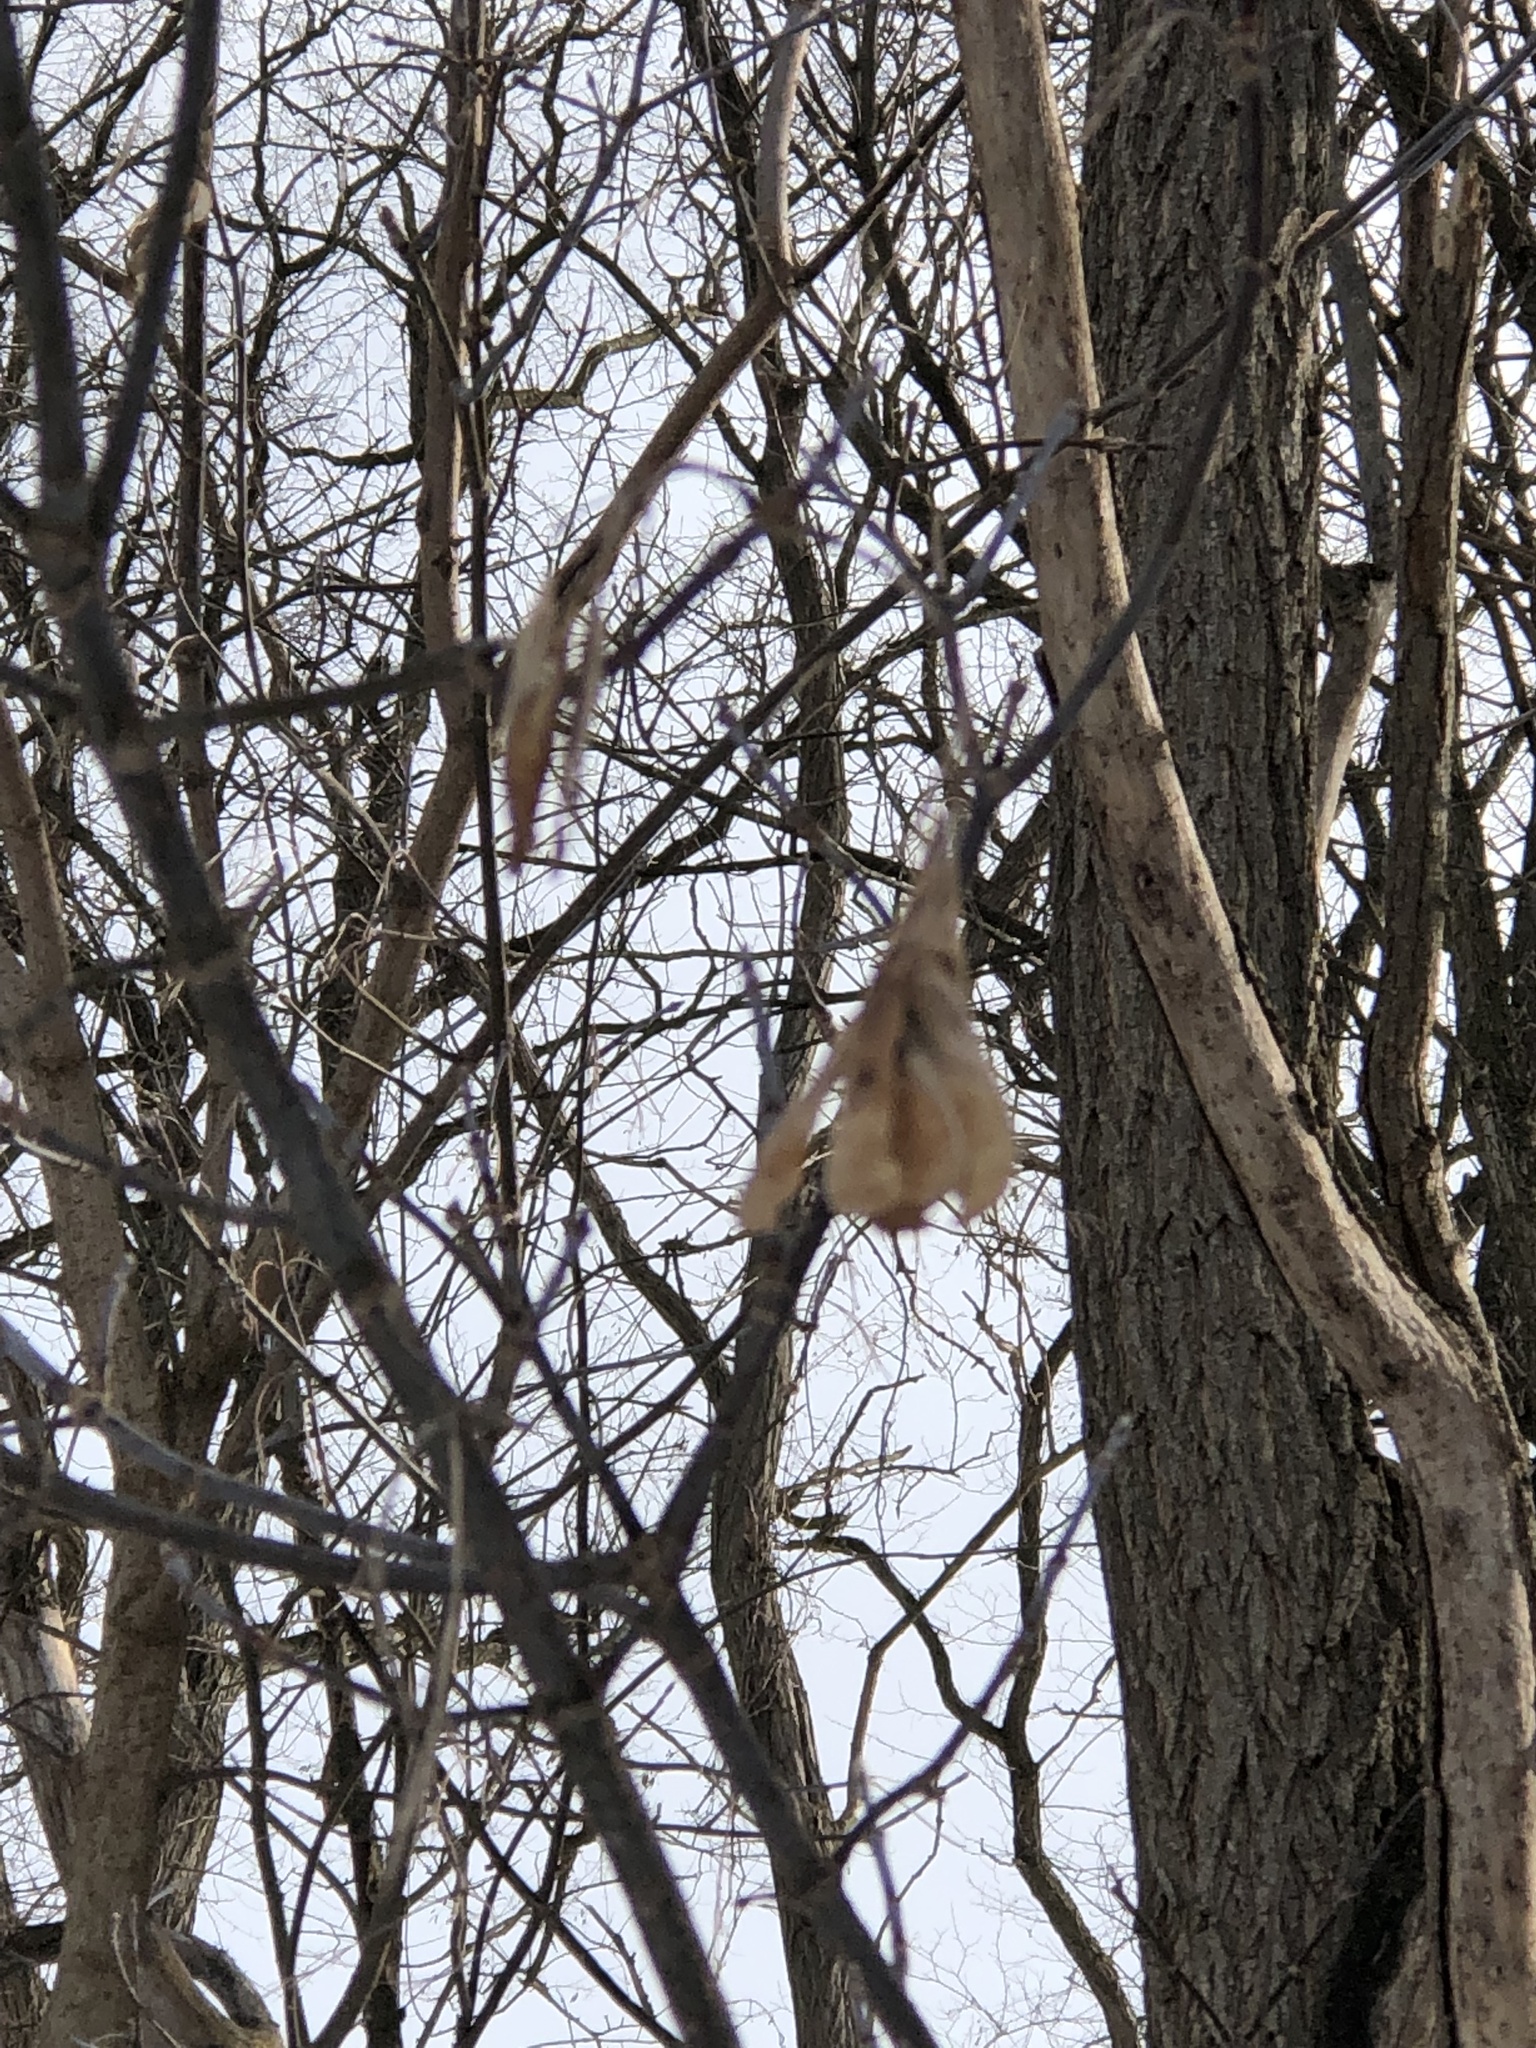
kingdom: Plantae
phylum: Tracheophyta
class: Magnoliopsida
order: Sapindales
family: Sapindaceae
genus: Acer
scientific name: Acer negundo
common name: Ashleaf maple
